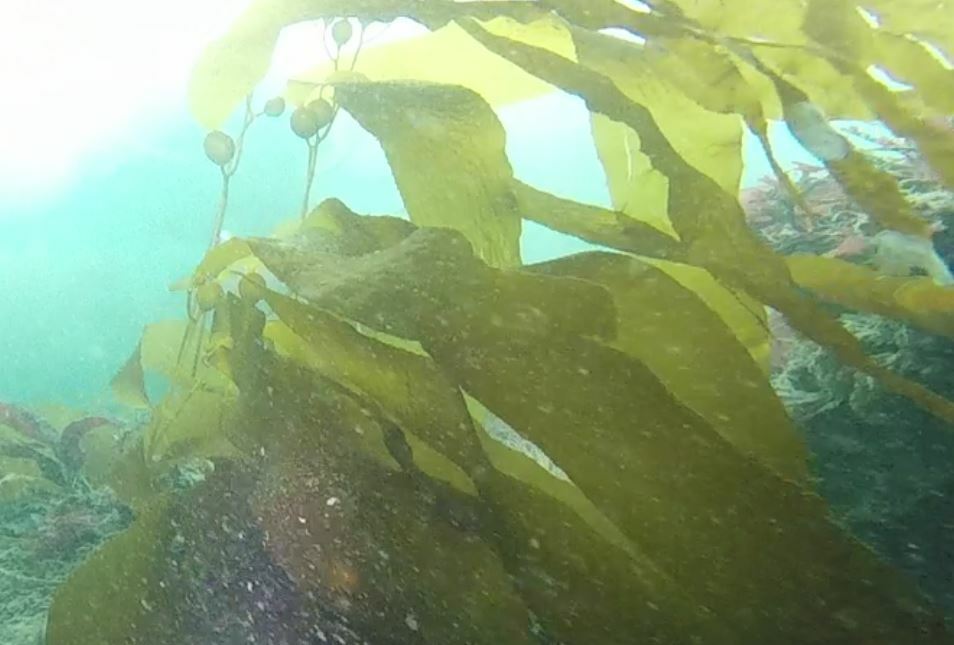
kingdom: Chromista
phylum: Ochrophyta
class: Phaeophyceae
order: Laminariales
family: Laminariaceae
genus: Macrocystis
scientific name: Macrocystis pyrifera
